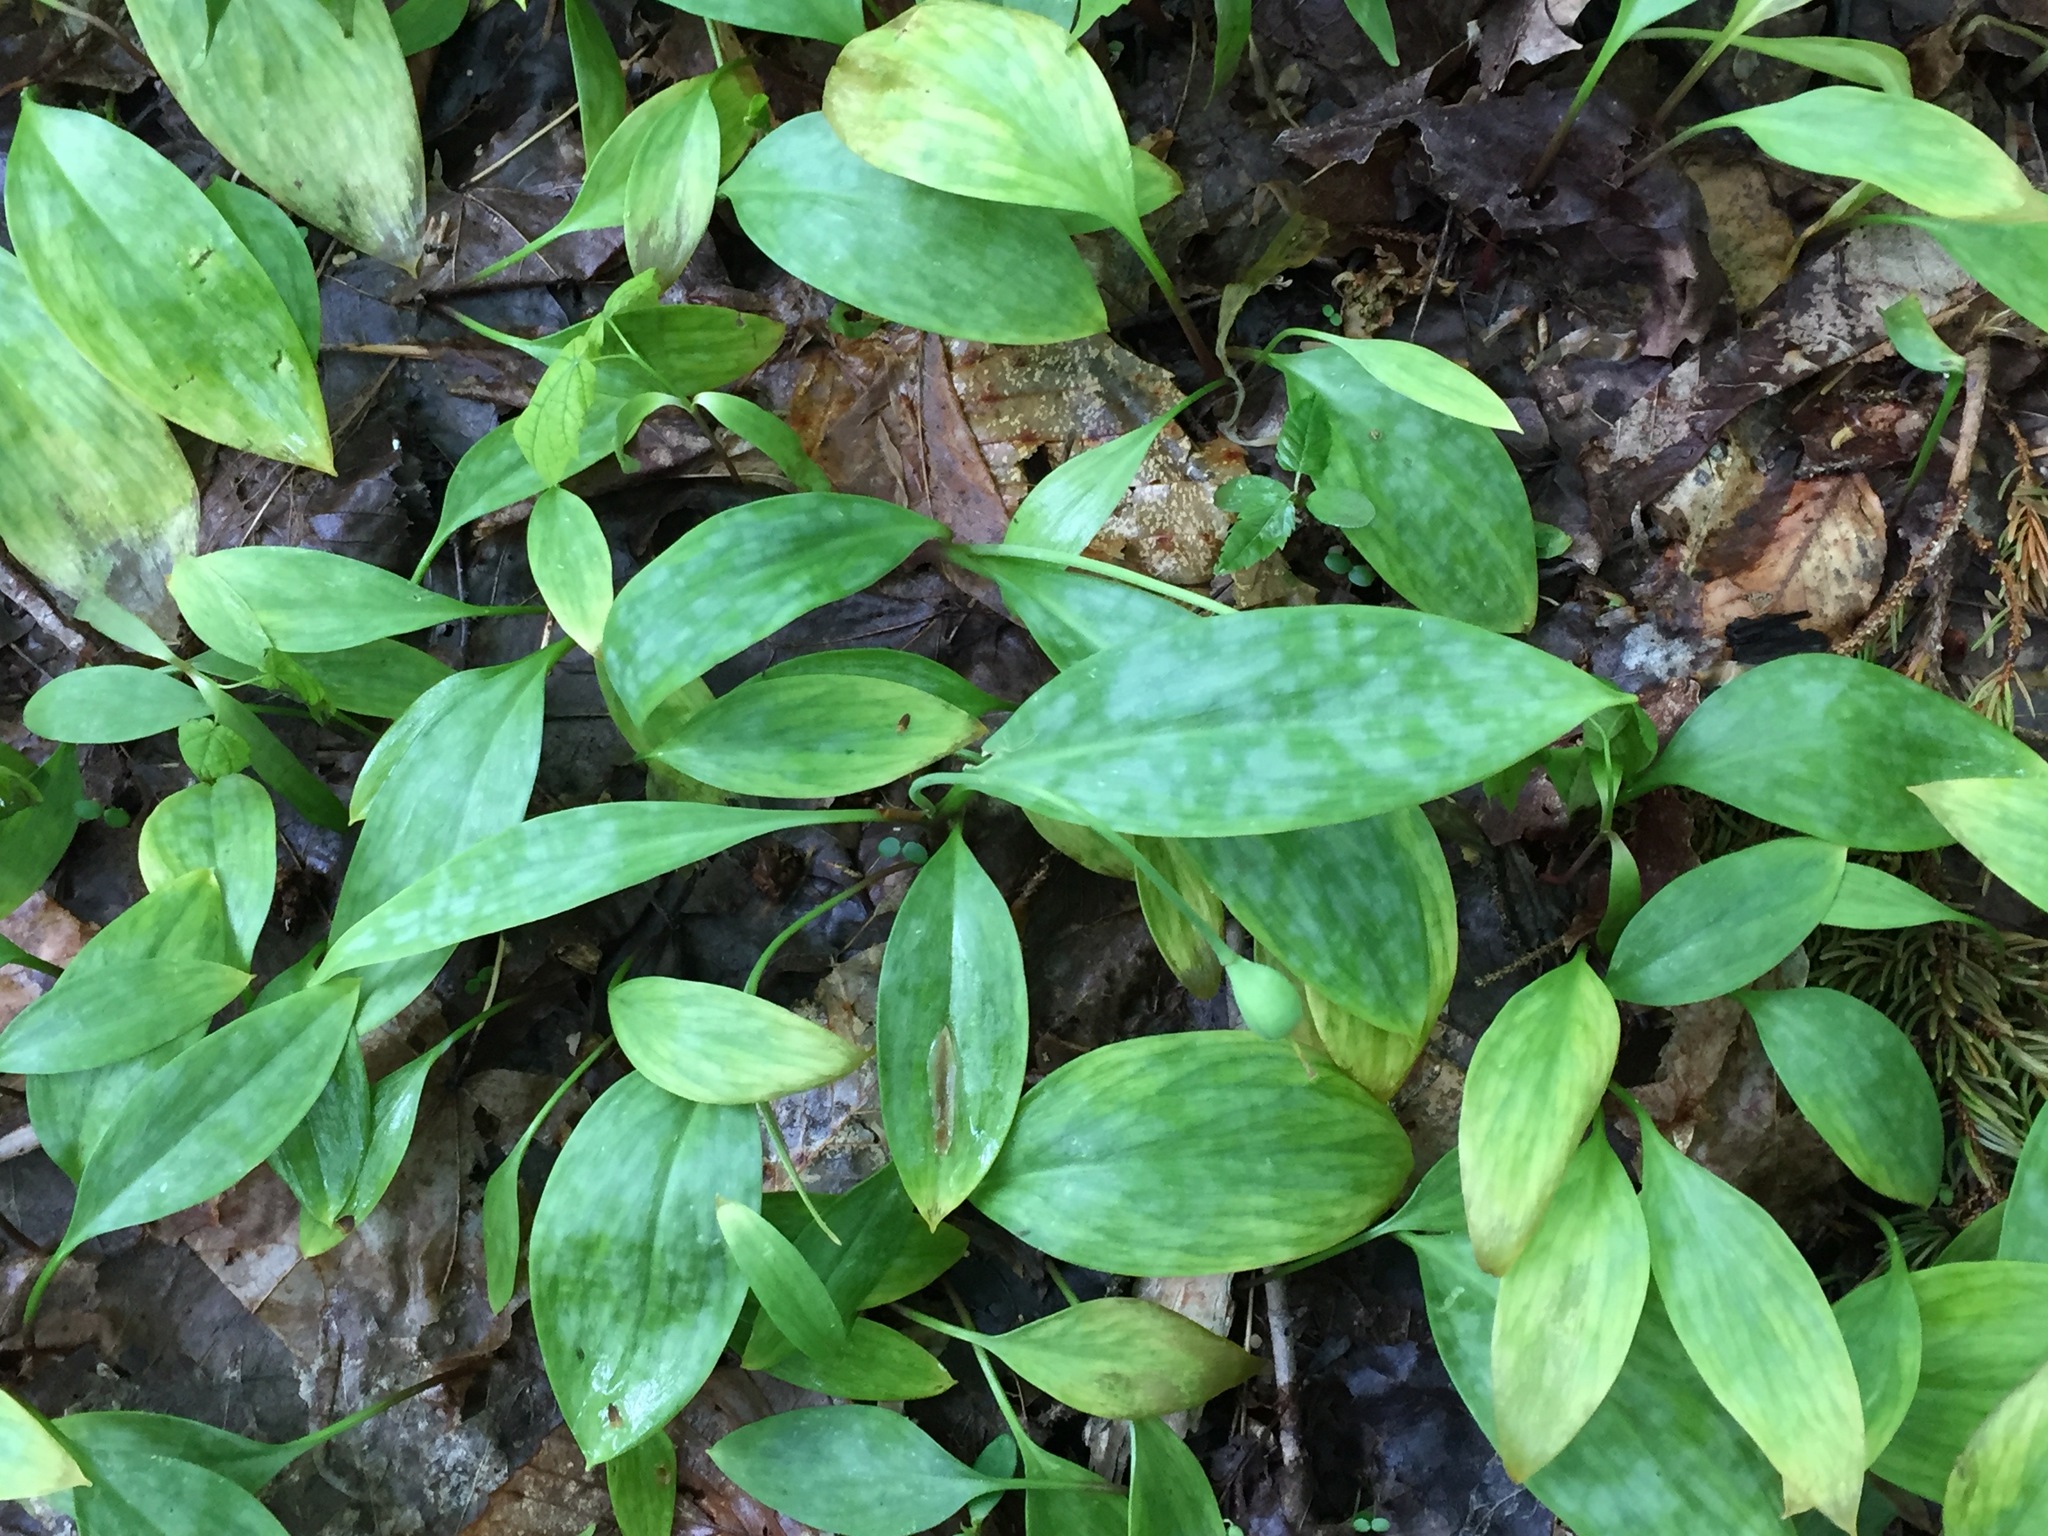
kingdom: Plantae
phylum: Tracheophyta
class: Liliopsida
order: Liliales
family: Liliaceae
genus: Erythronium
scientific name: Erythronium americanum
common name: Yellow adder's-tongue
